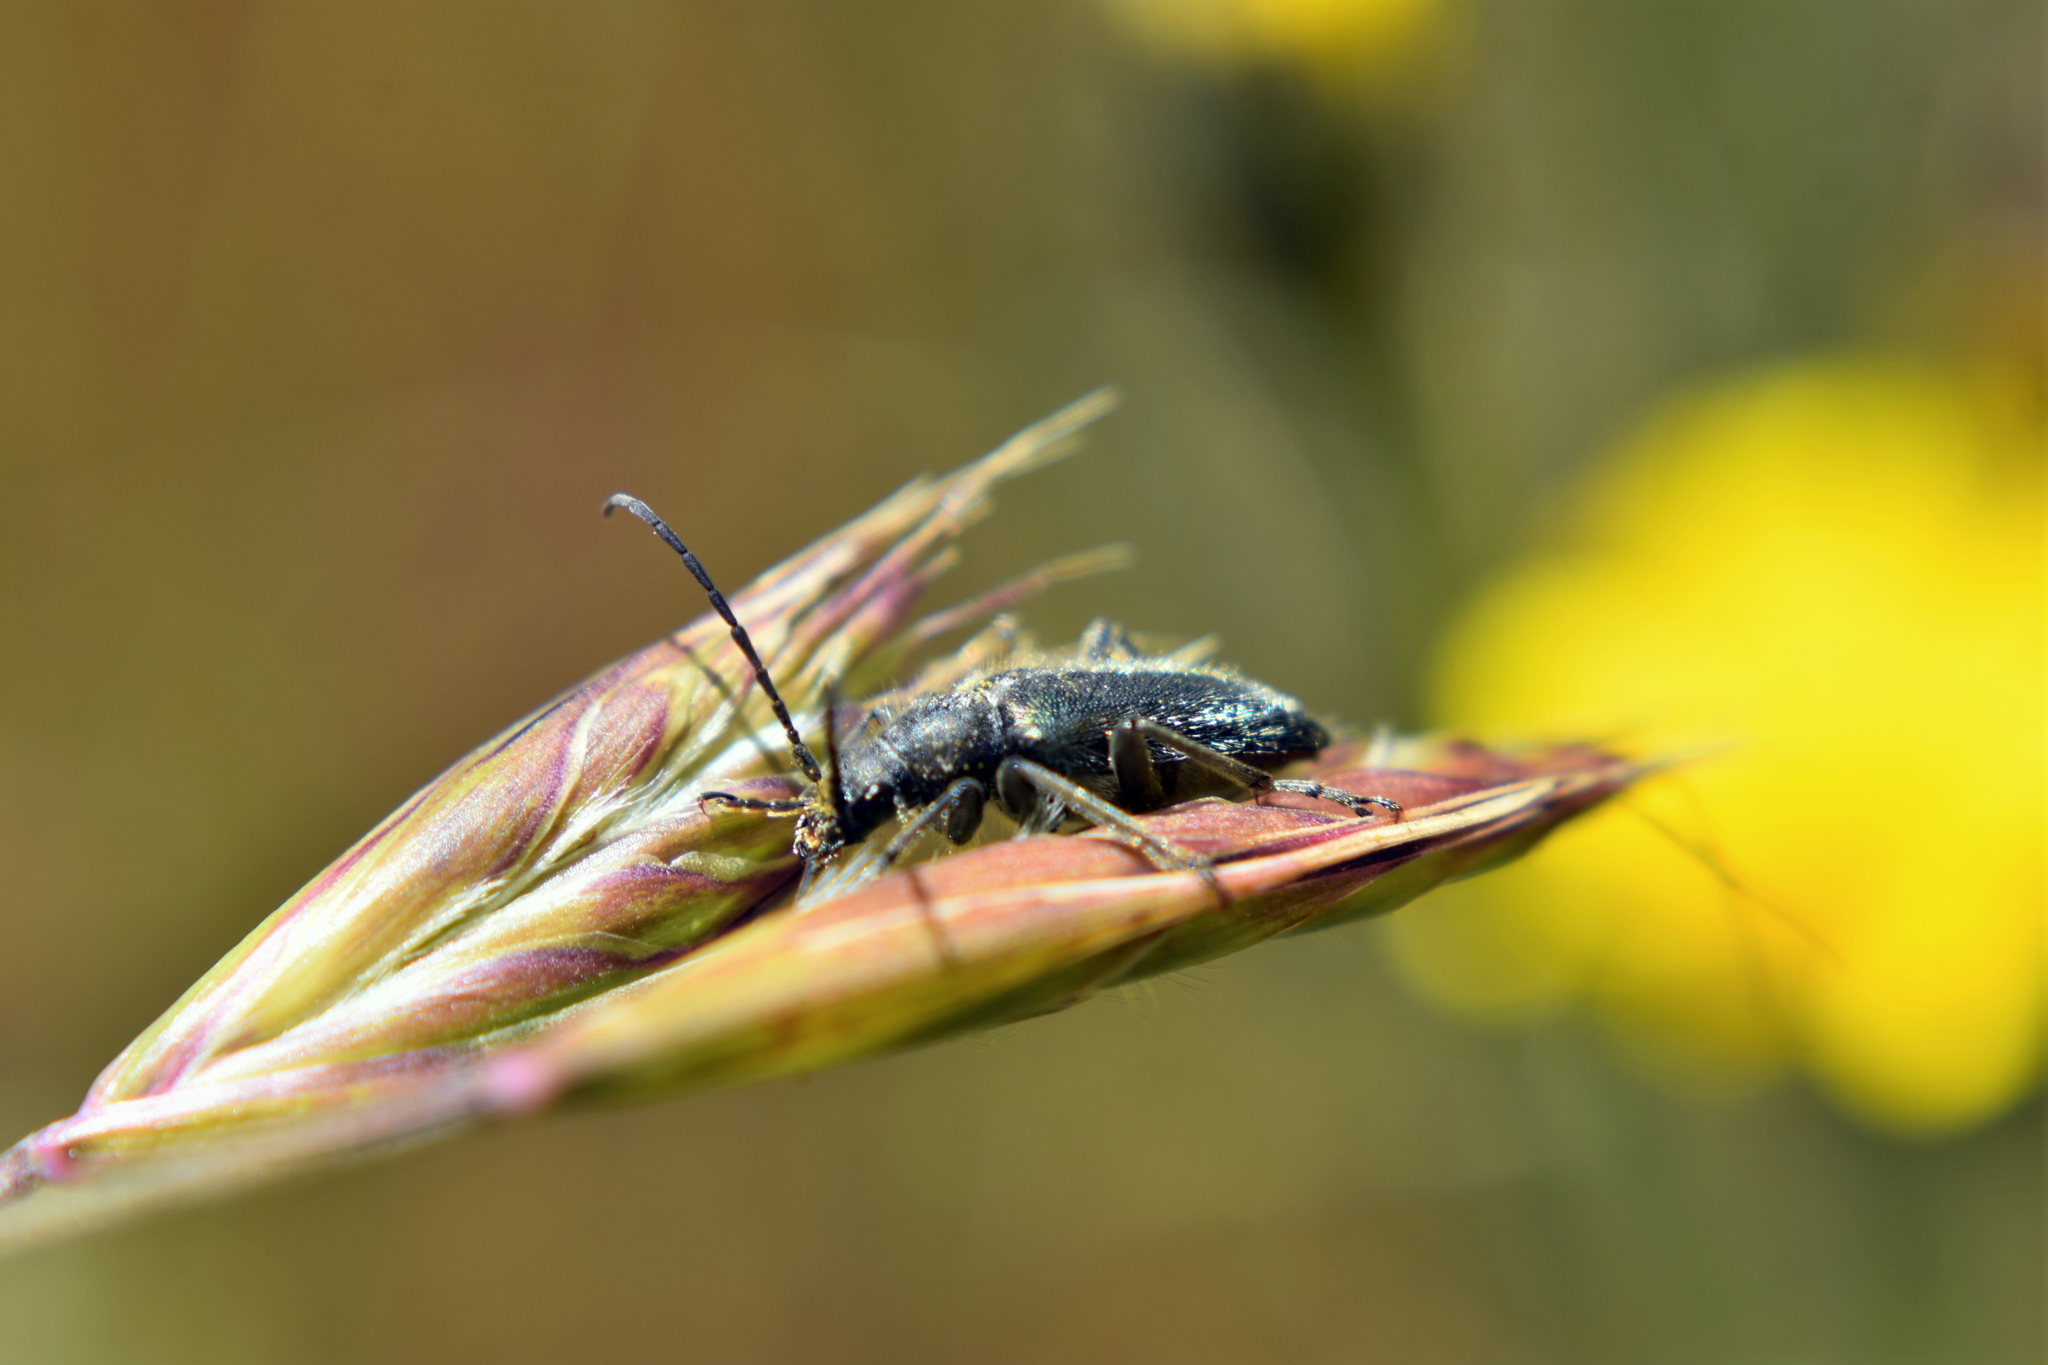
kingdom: Animalia
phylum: Arthropoda
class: Insecta
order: Coleoptera
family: Cerambycidae
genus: Brachysomida
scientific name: Brachysomida californica
